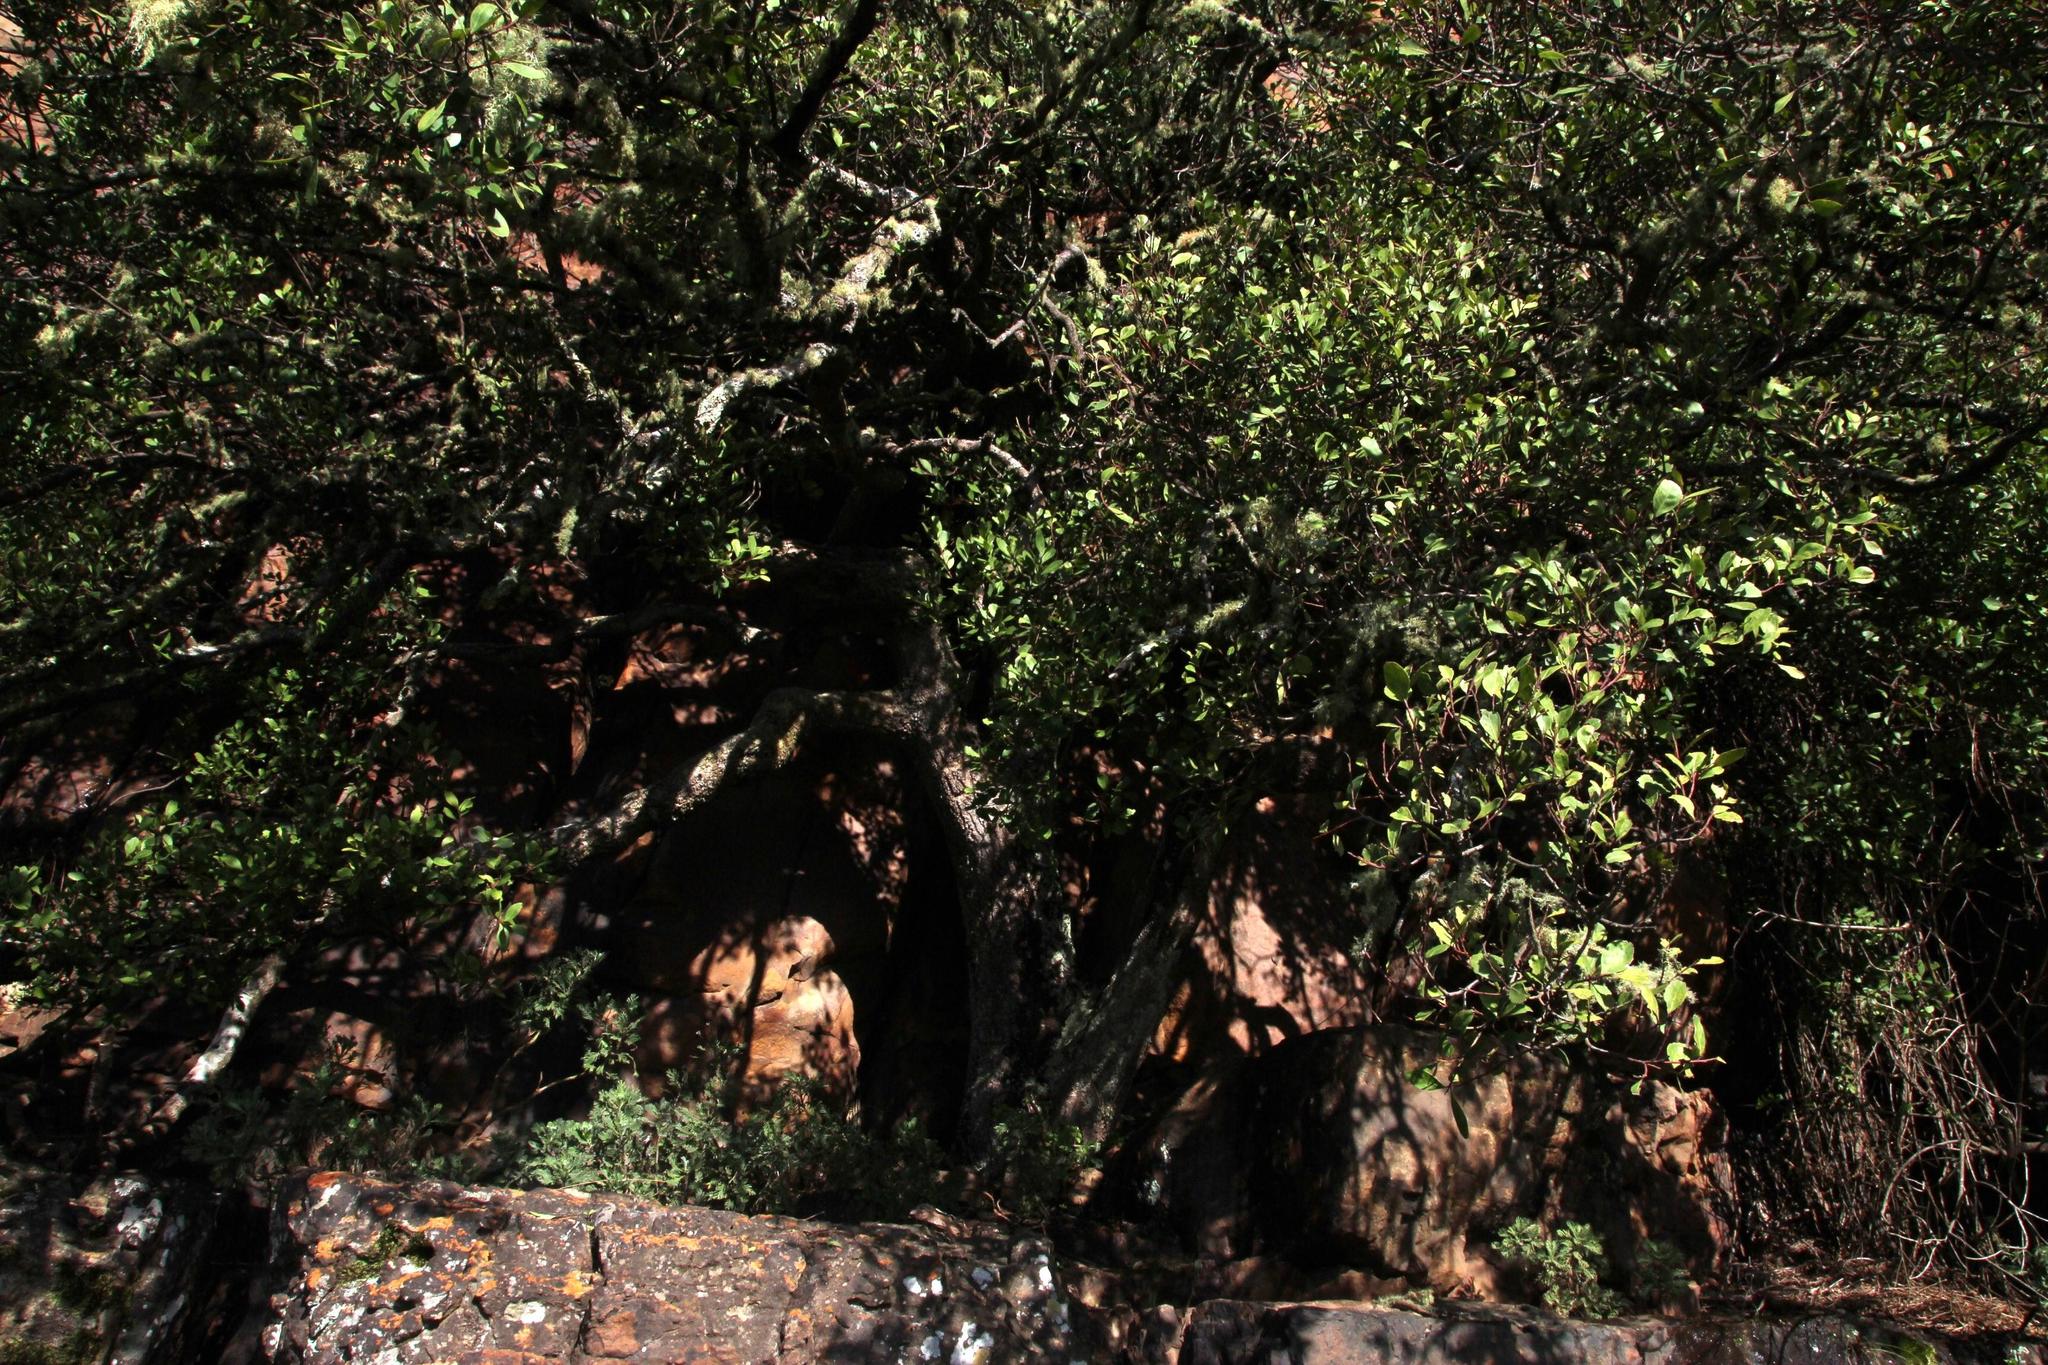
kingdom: Plantae
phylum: Tracheophyta
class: Magnoliopsida
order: Celastrales
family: Celastraceae
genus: Maurocenia
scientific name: Maurocenia frangula
